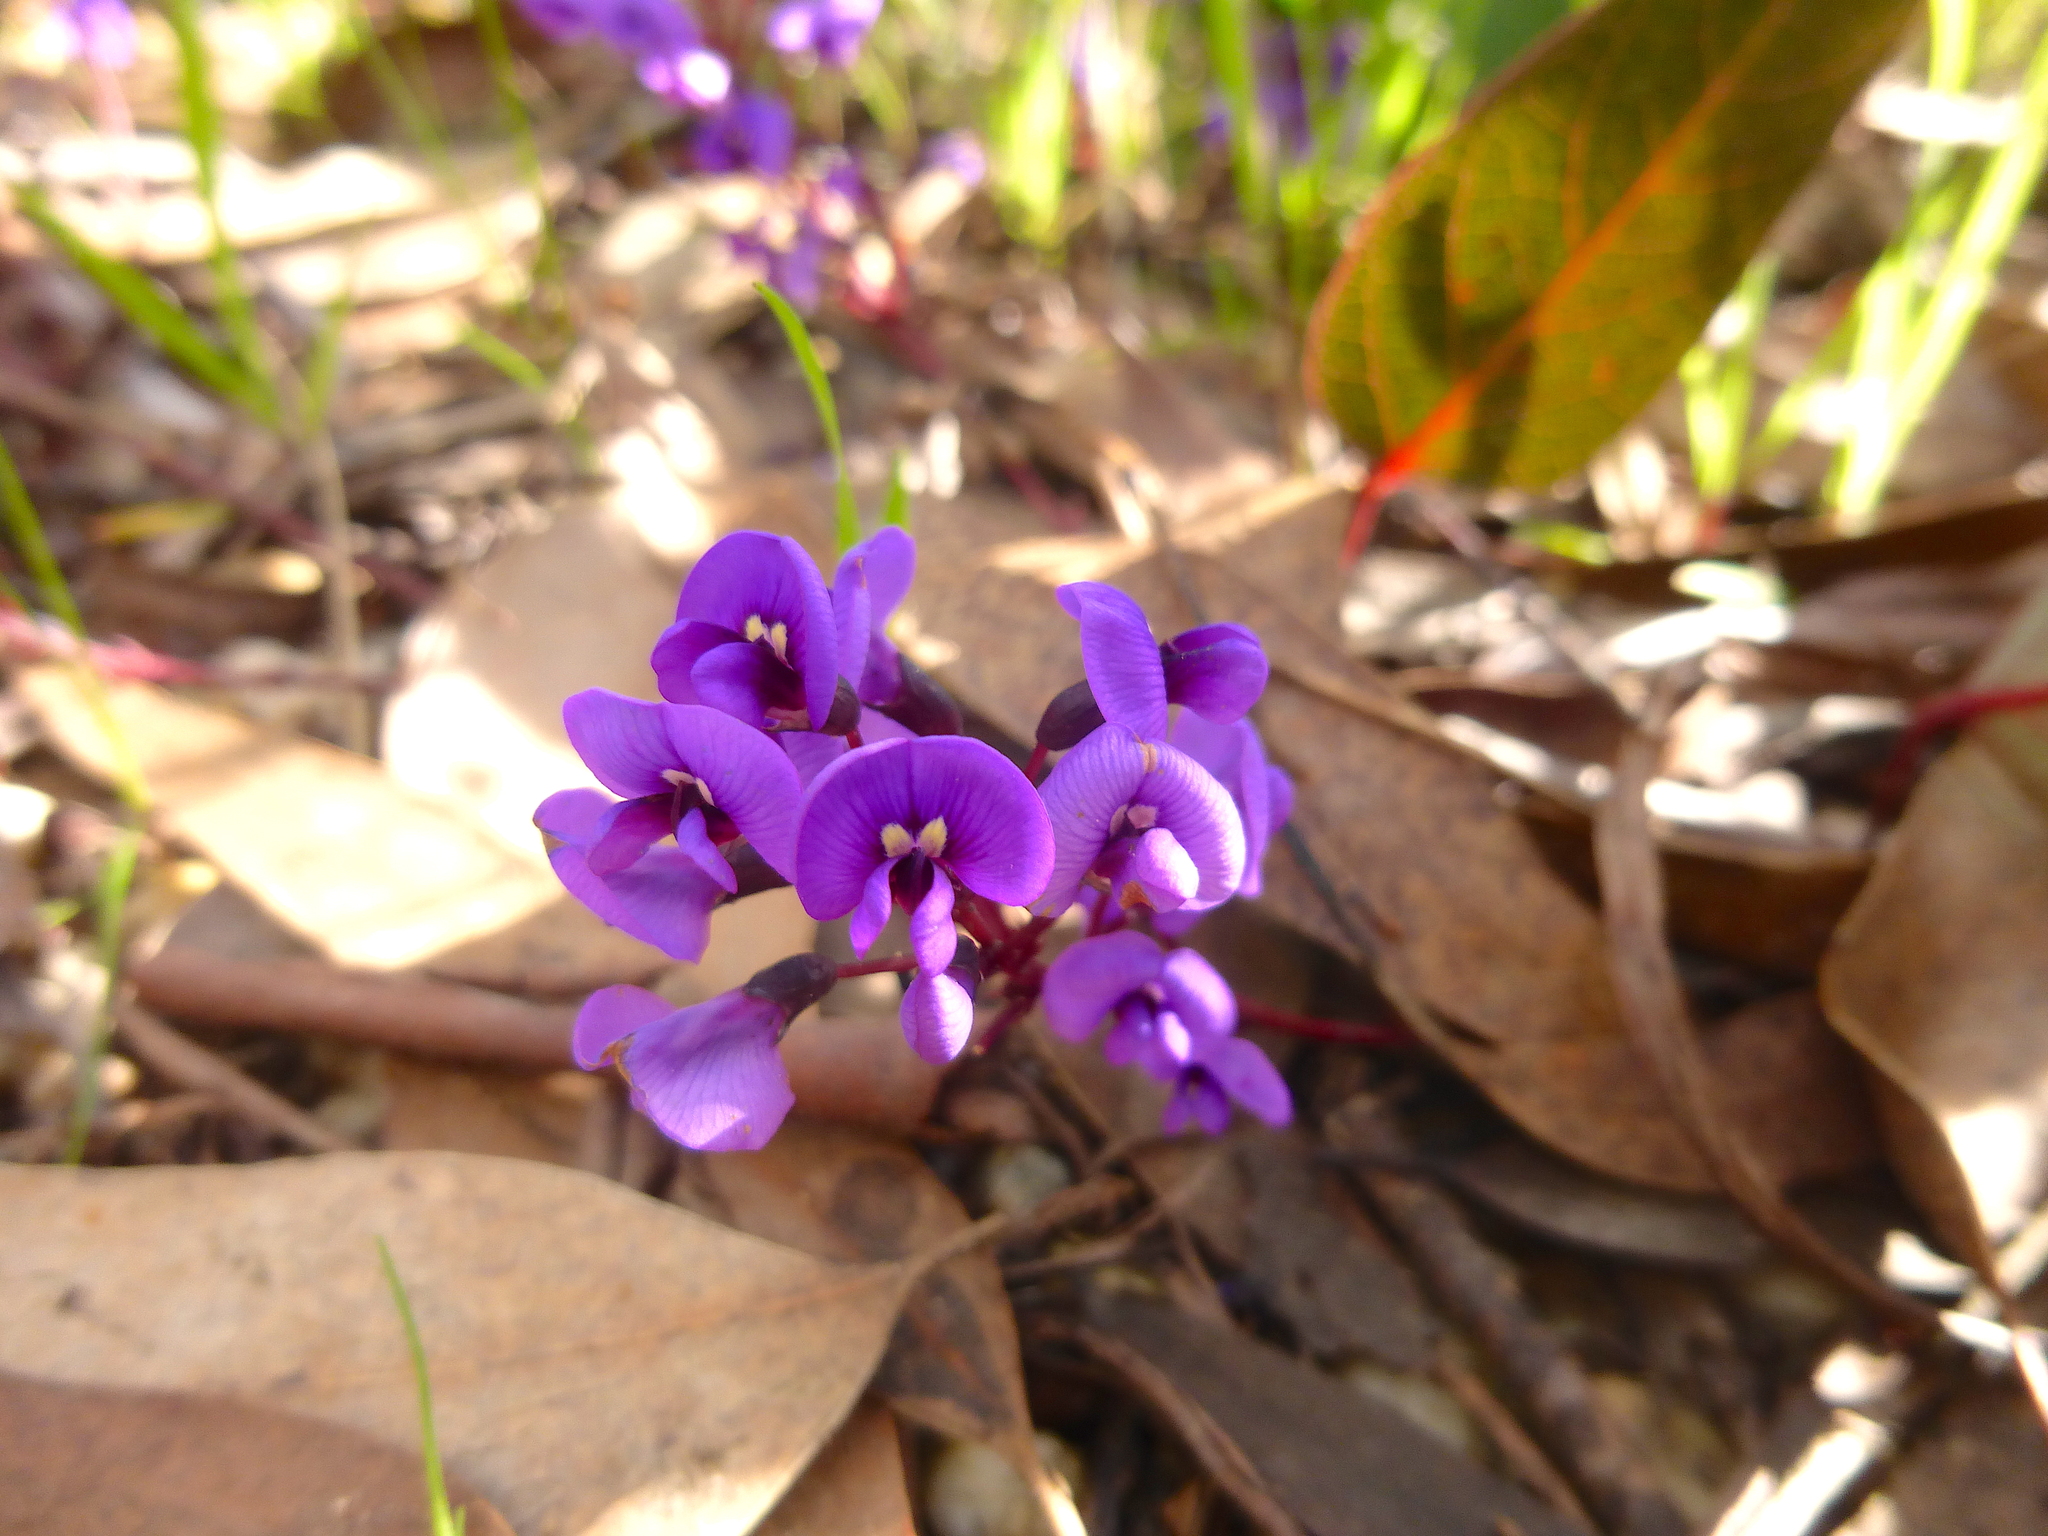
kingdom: Plantae
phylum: Tracheophyta
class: Magnoliopsida
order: Fabales
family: Fabaceae
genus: Hardenbergia
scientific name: Hardenbergia violacea
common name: Coral-pea
